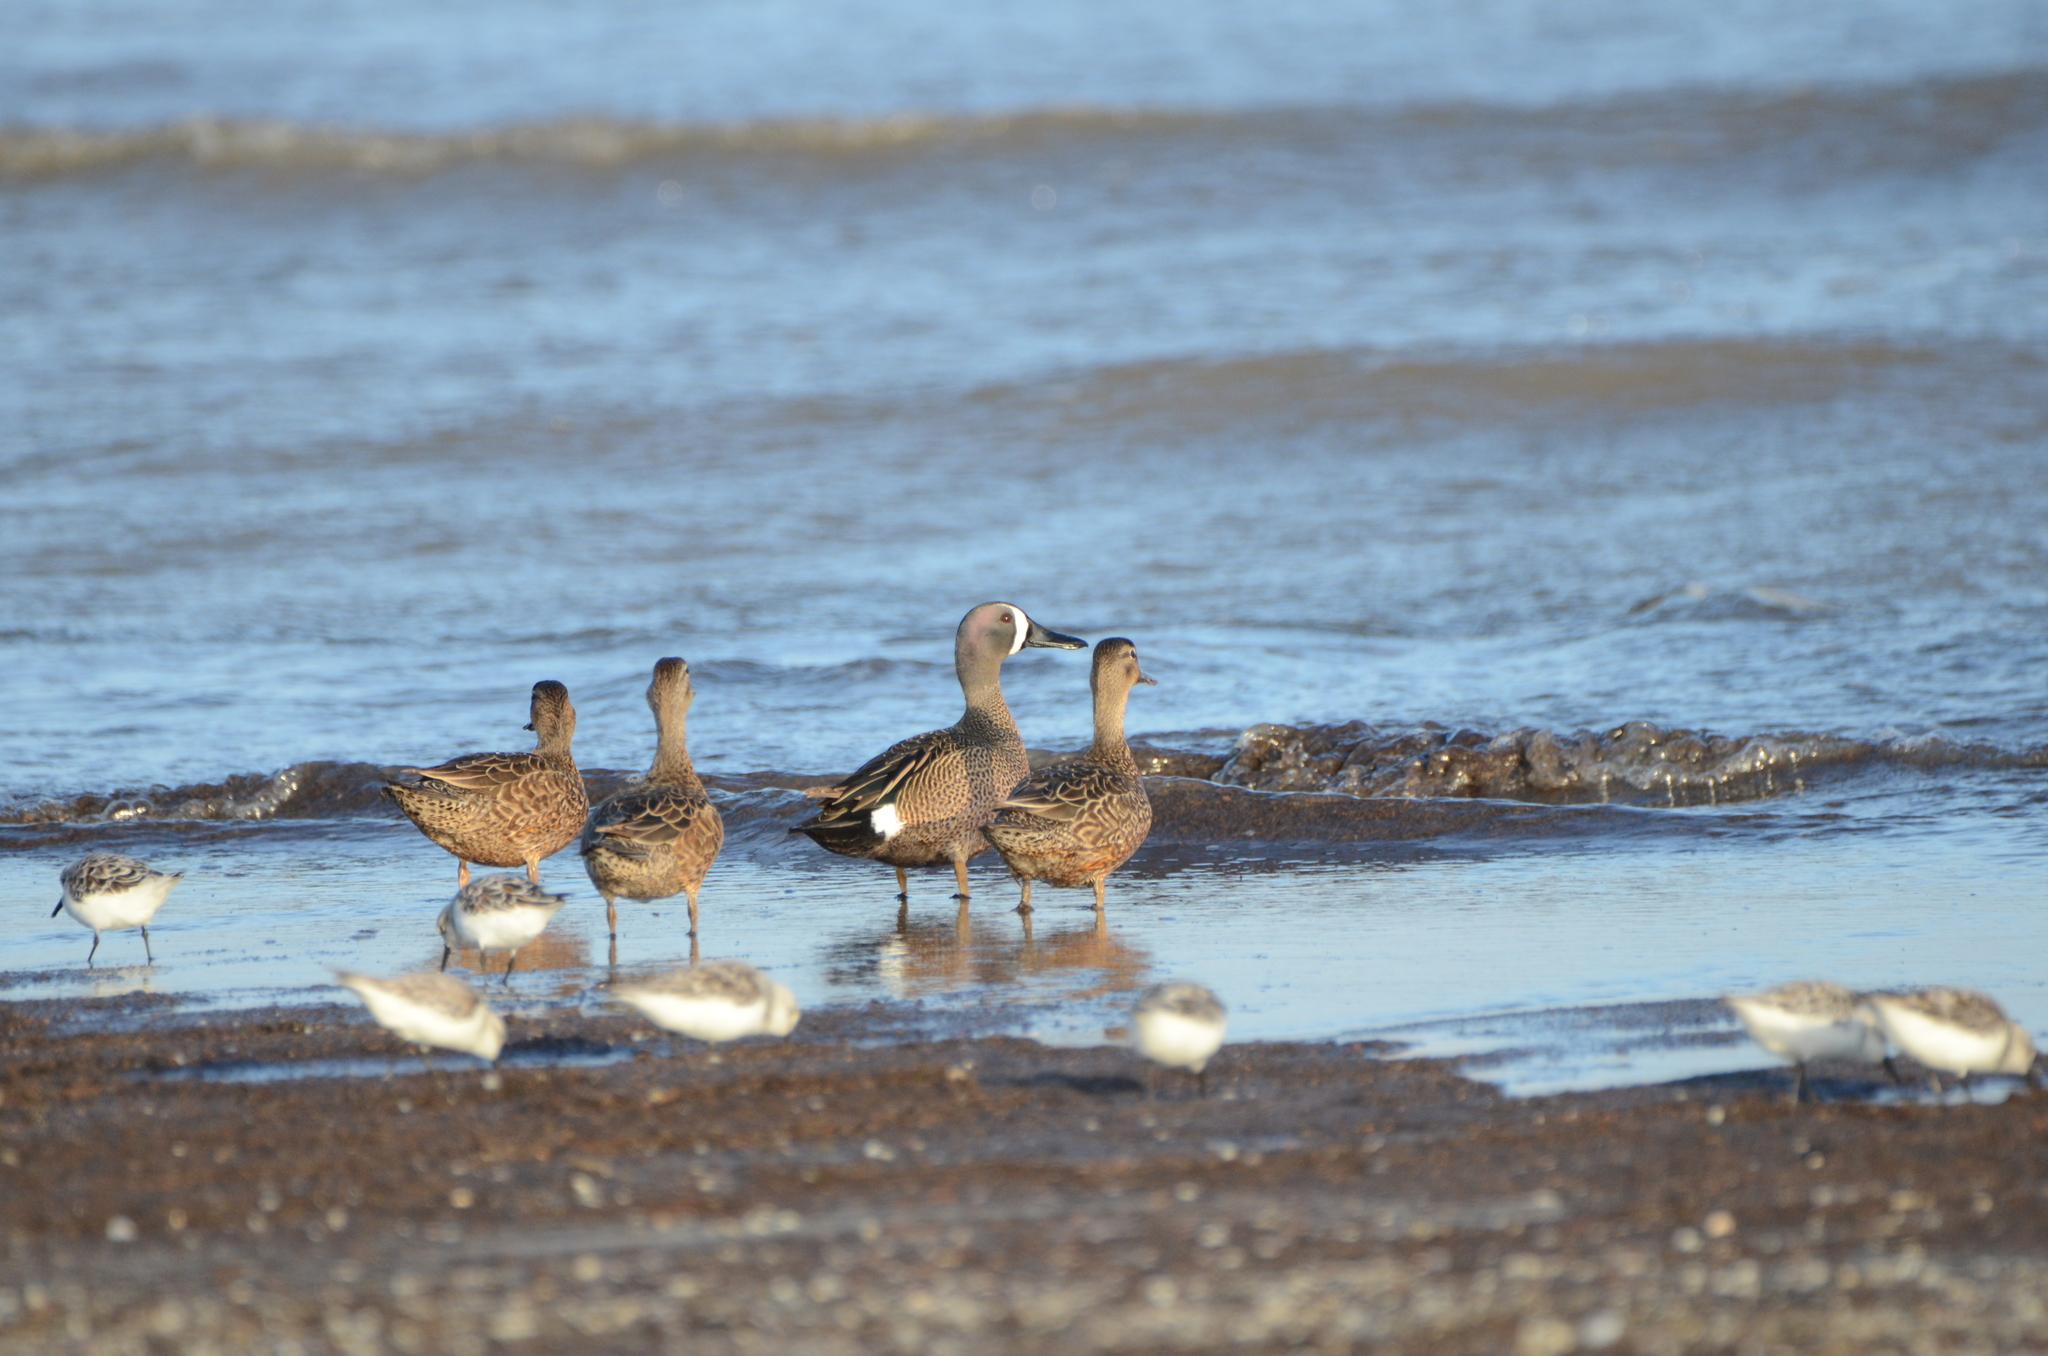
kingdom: Animalia
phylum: Chordata
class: Aves
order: Anseriformes
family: Anatidae
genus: Spatula
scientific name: Spatula discors
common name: Blue-winged teal
